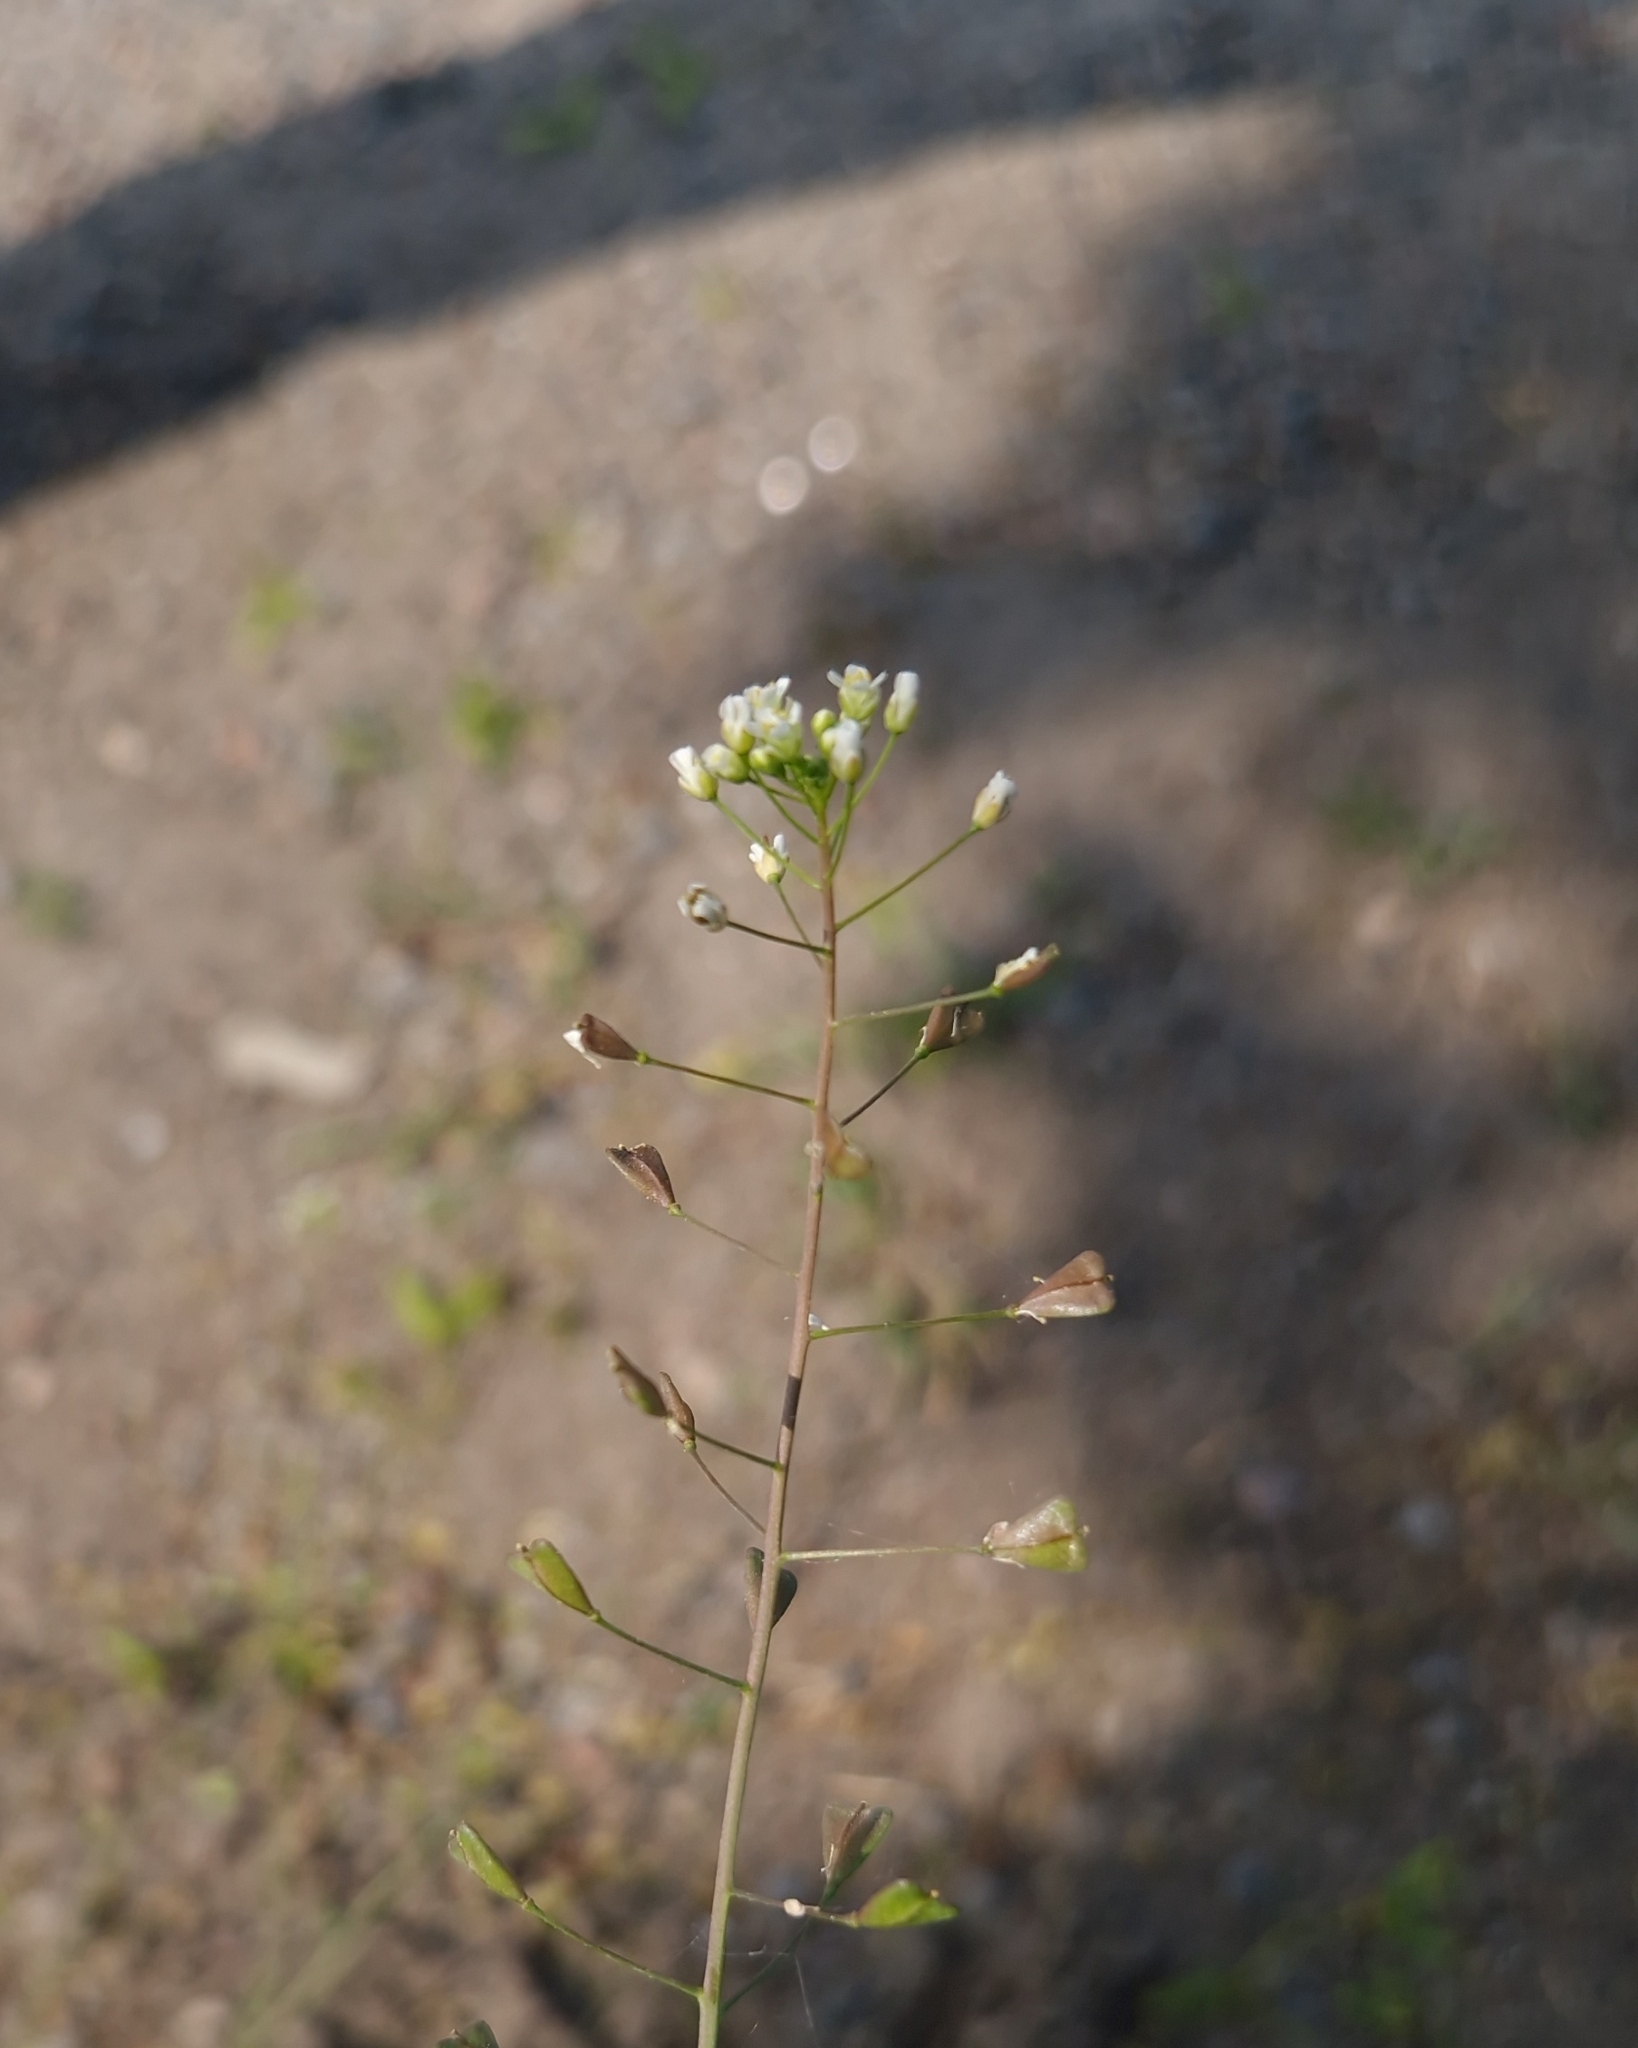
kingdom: Plantae
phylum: Tracheophyta
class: Magnoliopsida
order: Brassicales
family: Brassicaceae
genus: Capsella
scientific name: Capsella bursa-pastoris
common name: Shepherd's purse
